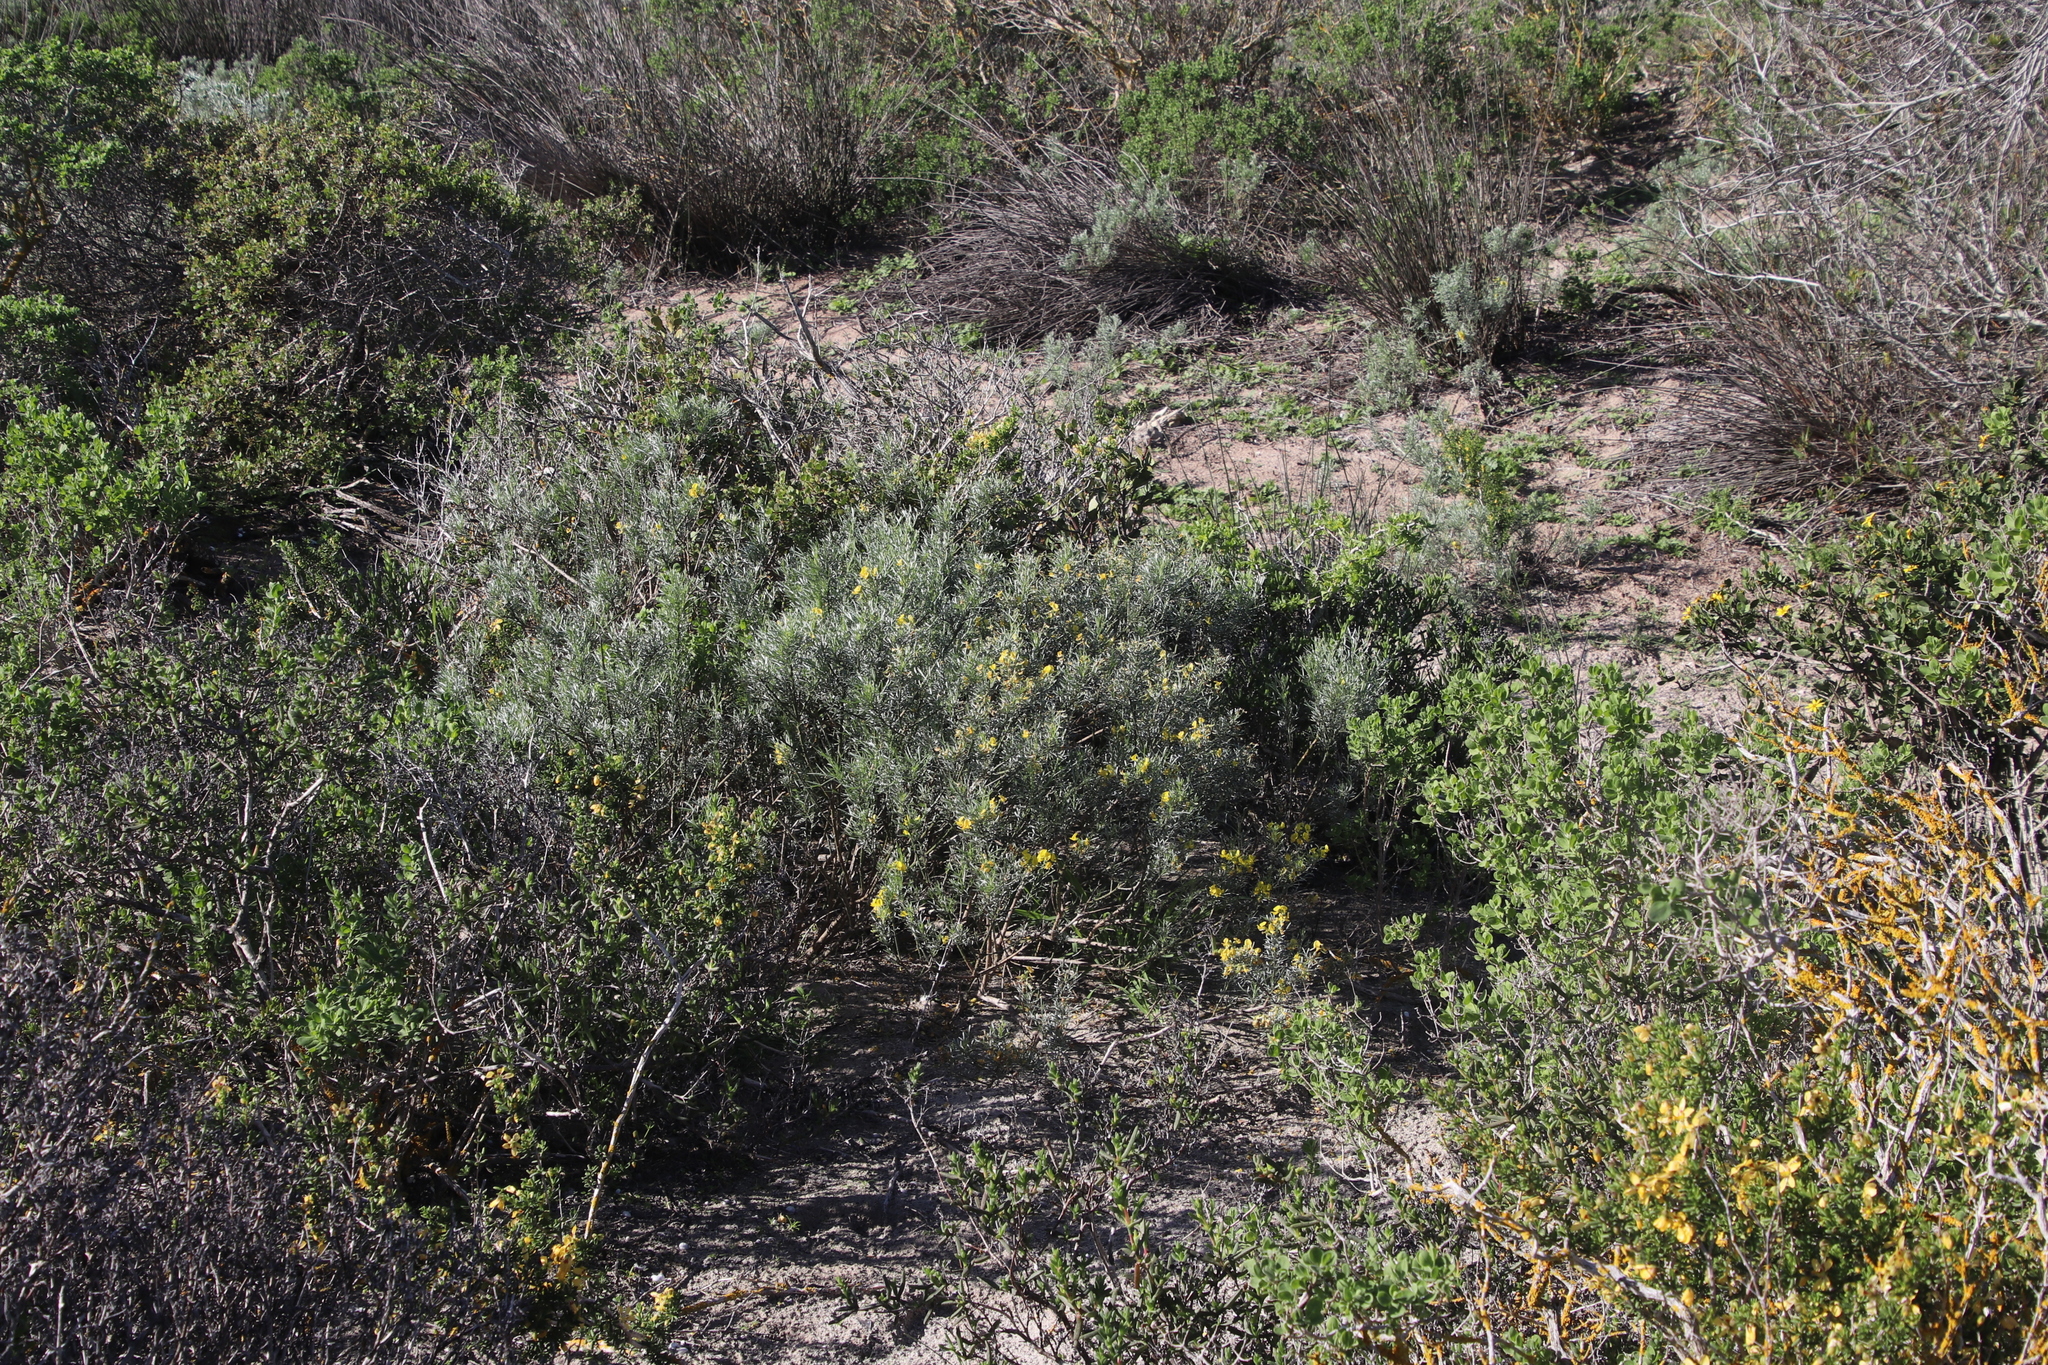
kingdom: Plantae
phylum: Tracheophyta
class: Magnoliopsida
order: Fabales
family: Fabaceae
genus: Calobota
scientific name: Calobota sericea
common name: Silver-pea
